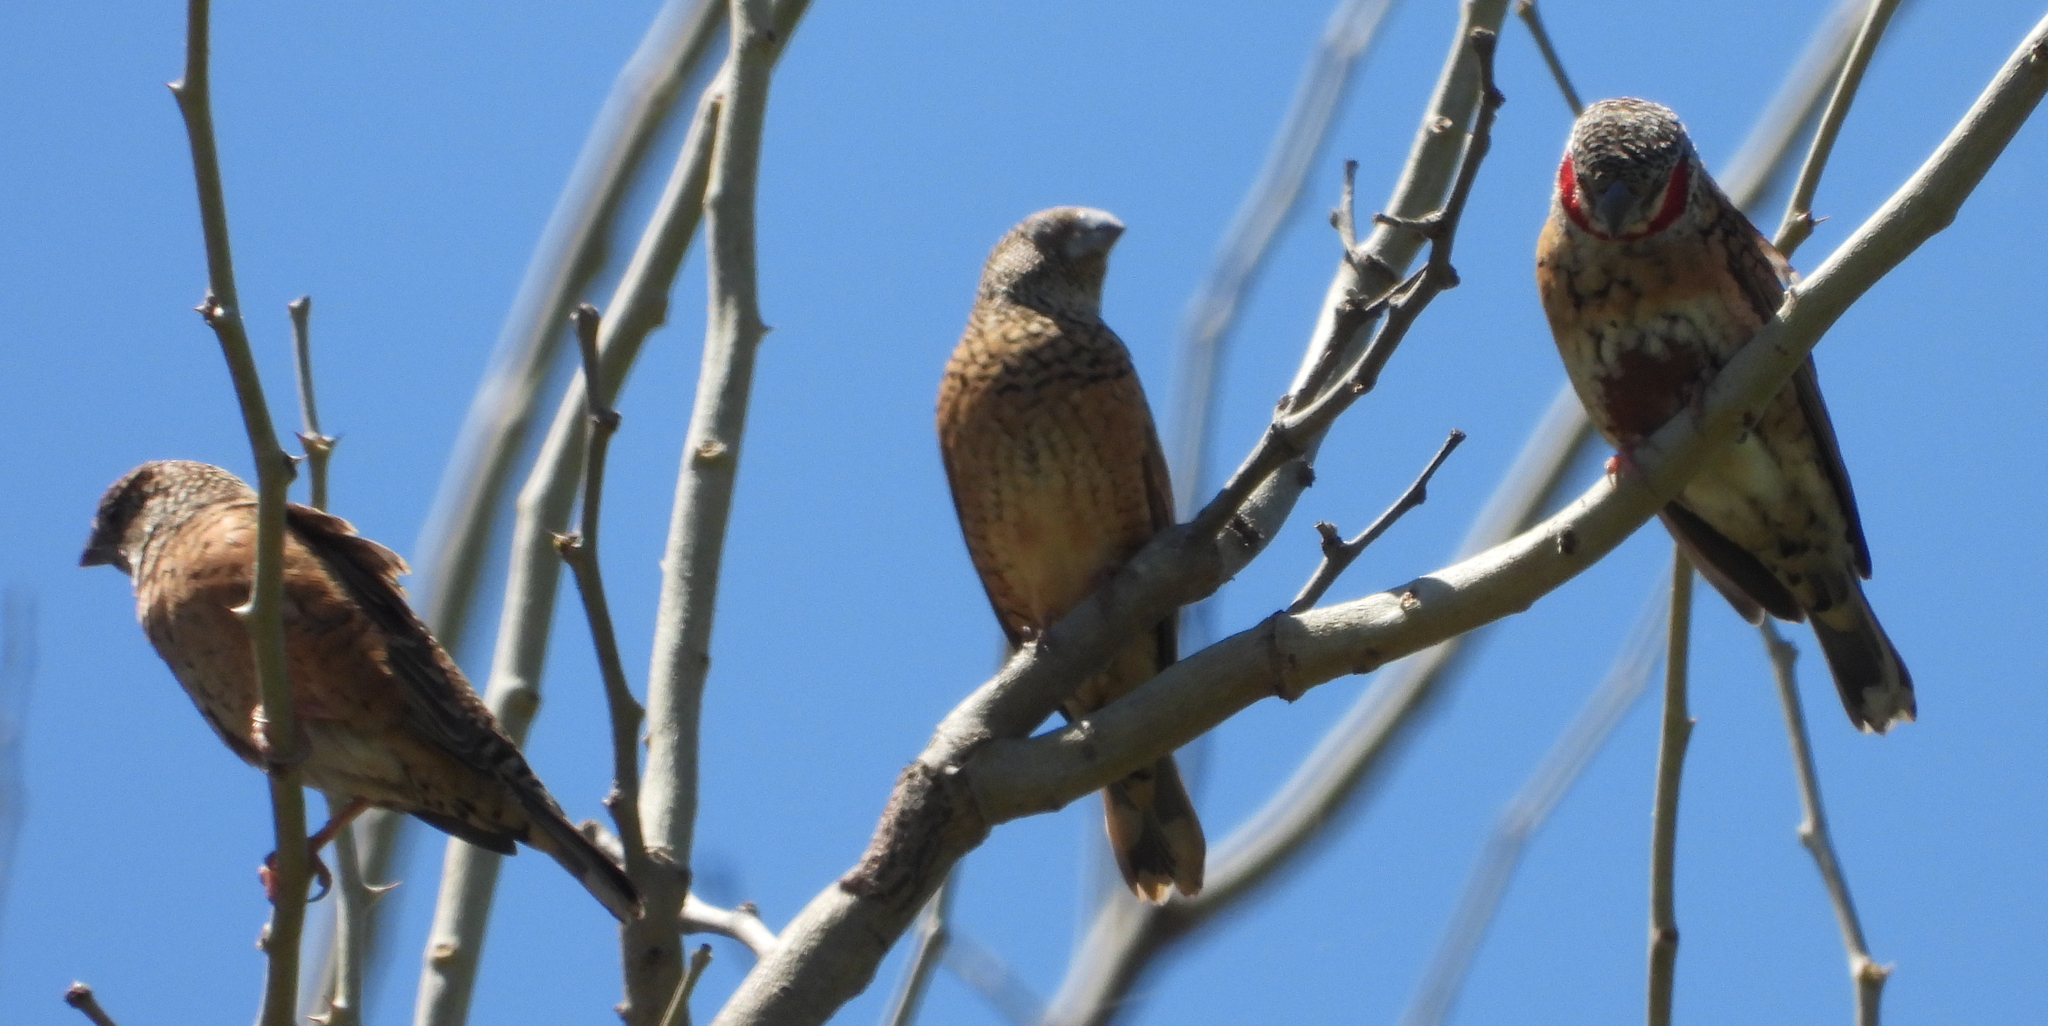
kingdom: Animalia
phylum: Chordata
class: Aves
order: Passeriformes
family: Estrildidae
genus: Amadina
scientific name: Amadina fasciata
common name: Cut-throat finch
